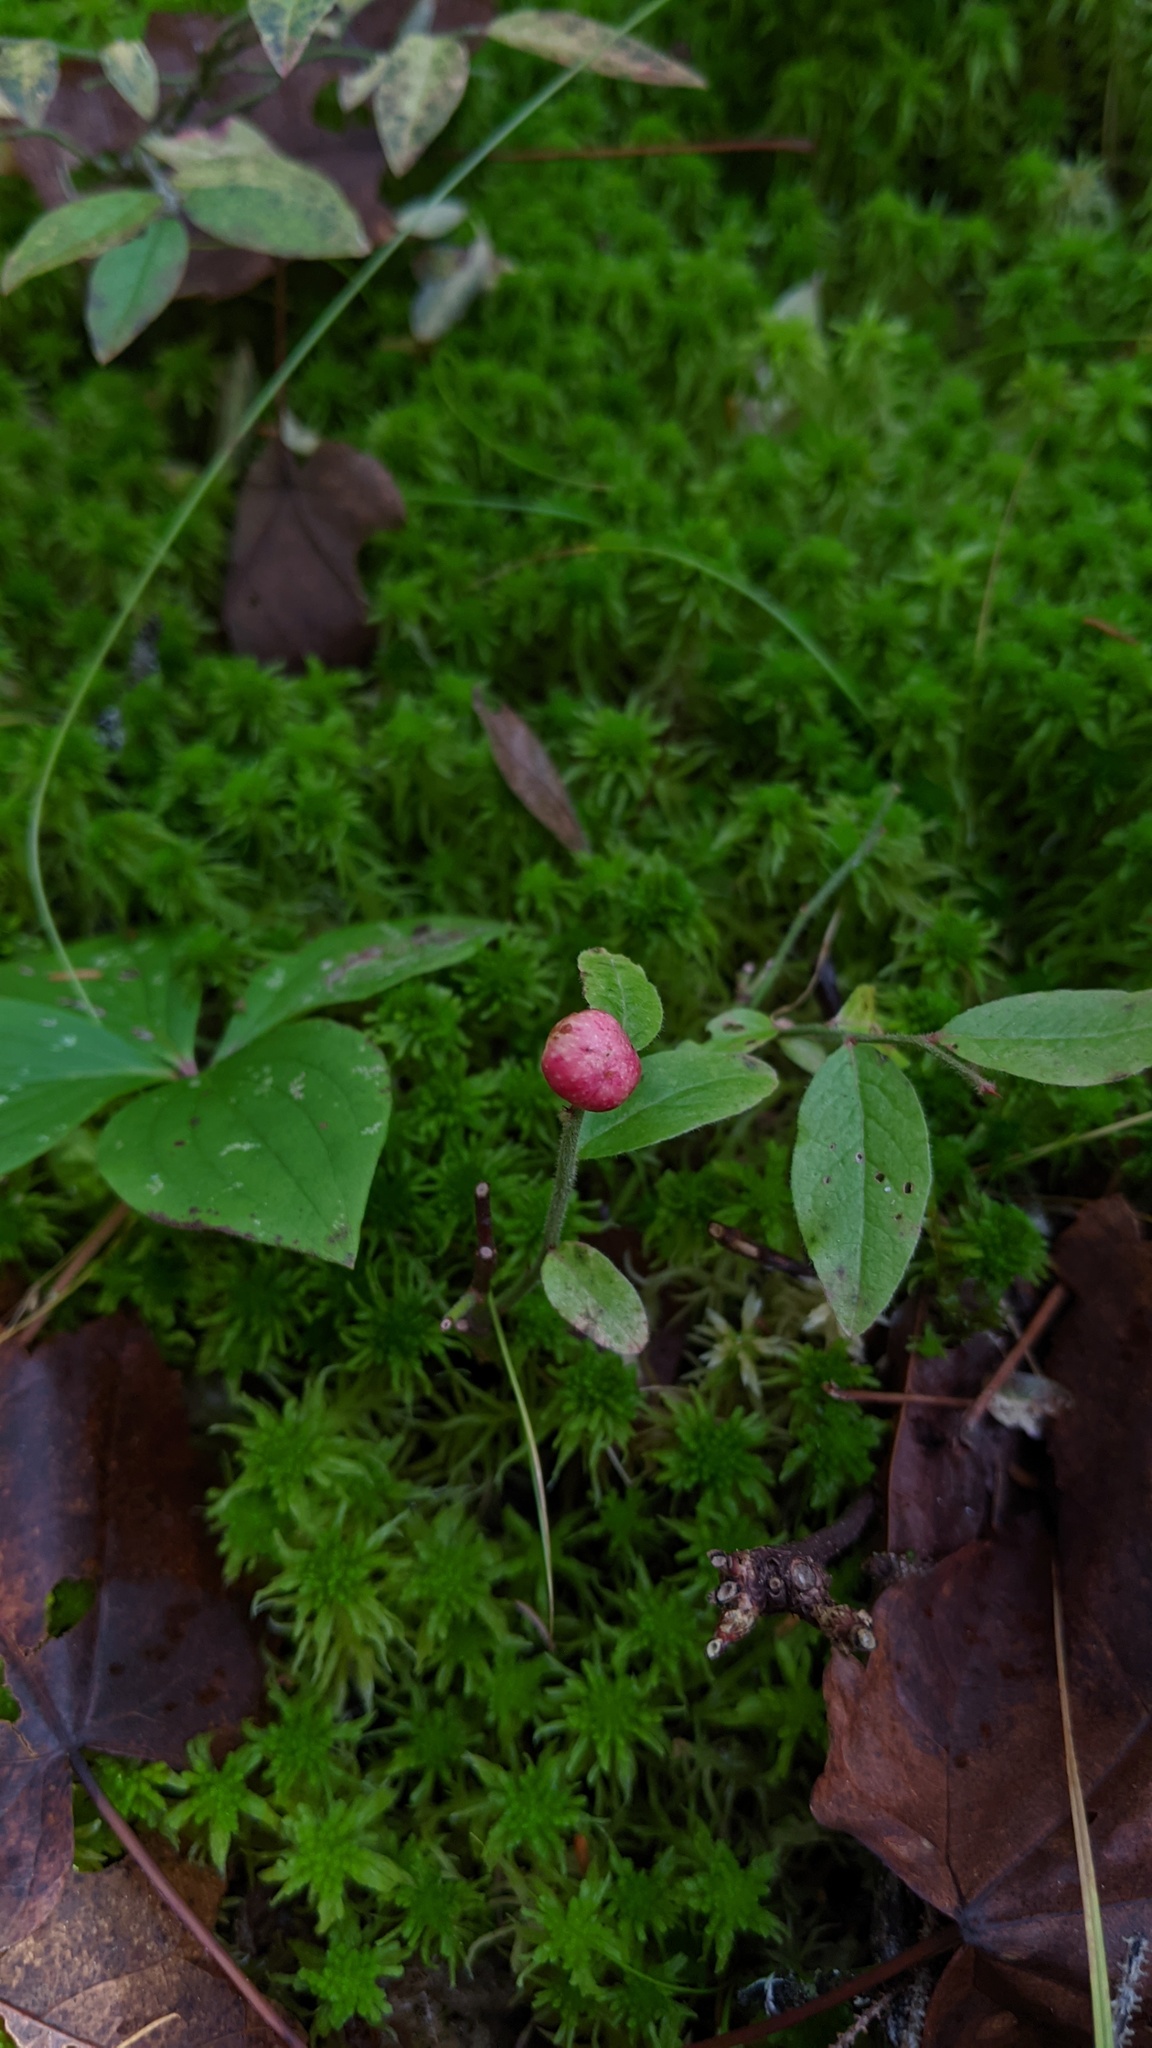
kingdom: Plantae
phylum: Tracheophyta
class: Magnoliopsida
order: Ericales
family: Ericaceae
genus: Vaccinium
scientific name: Vaccinium myrtilloides
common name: Canada blueberry
